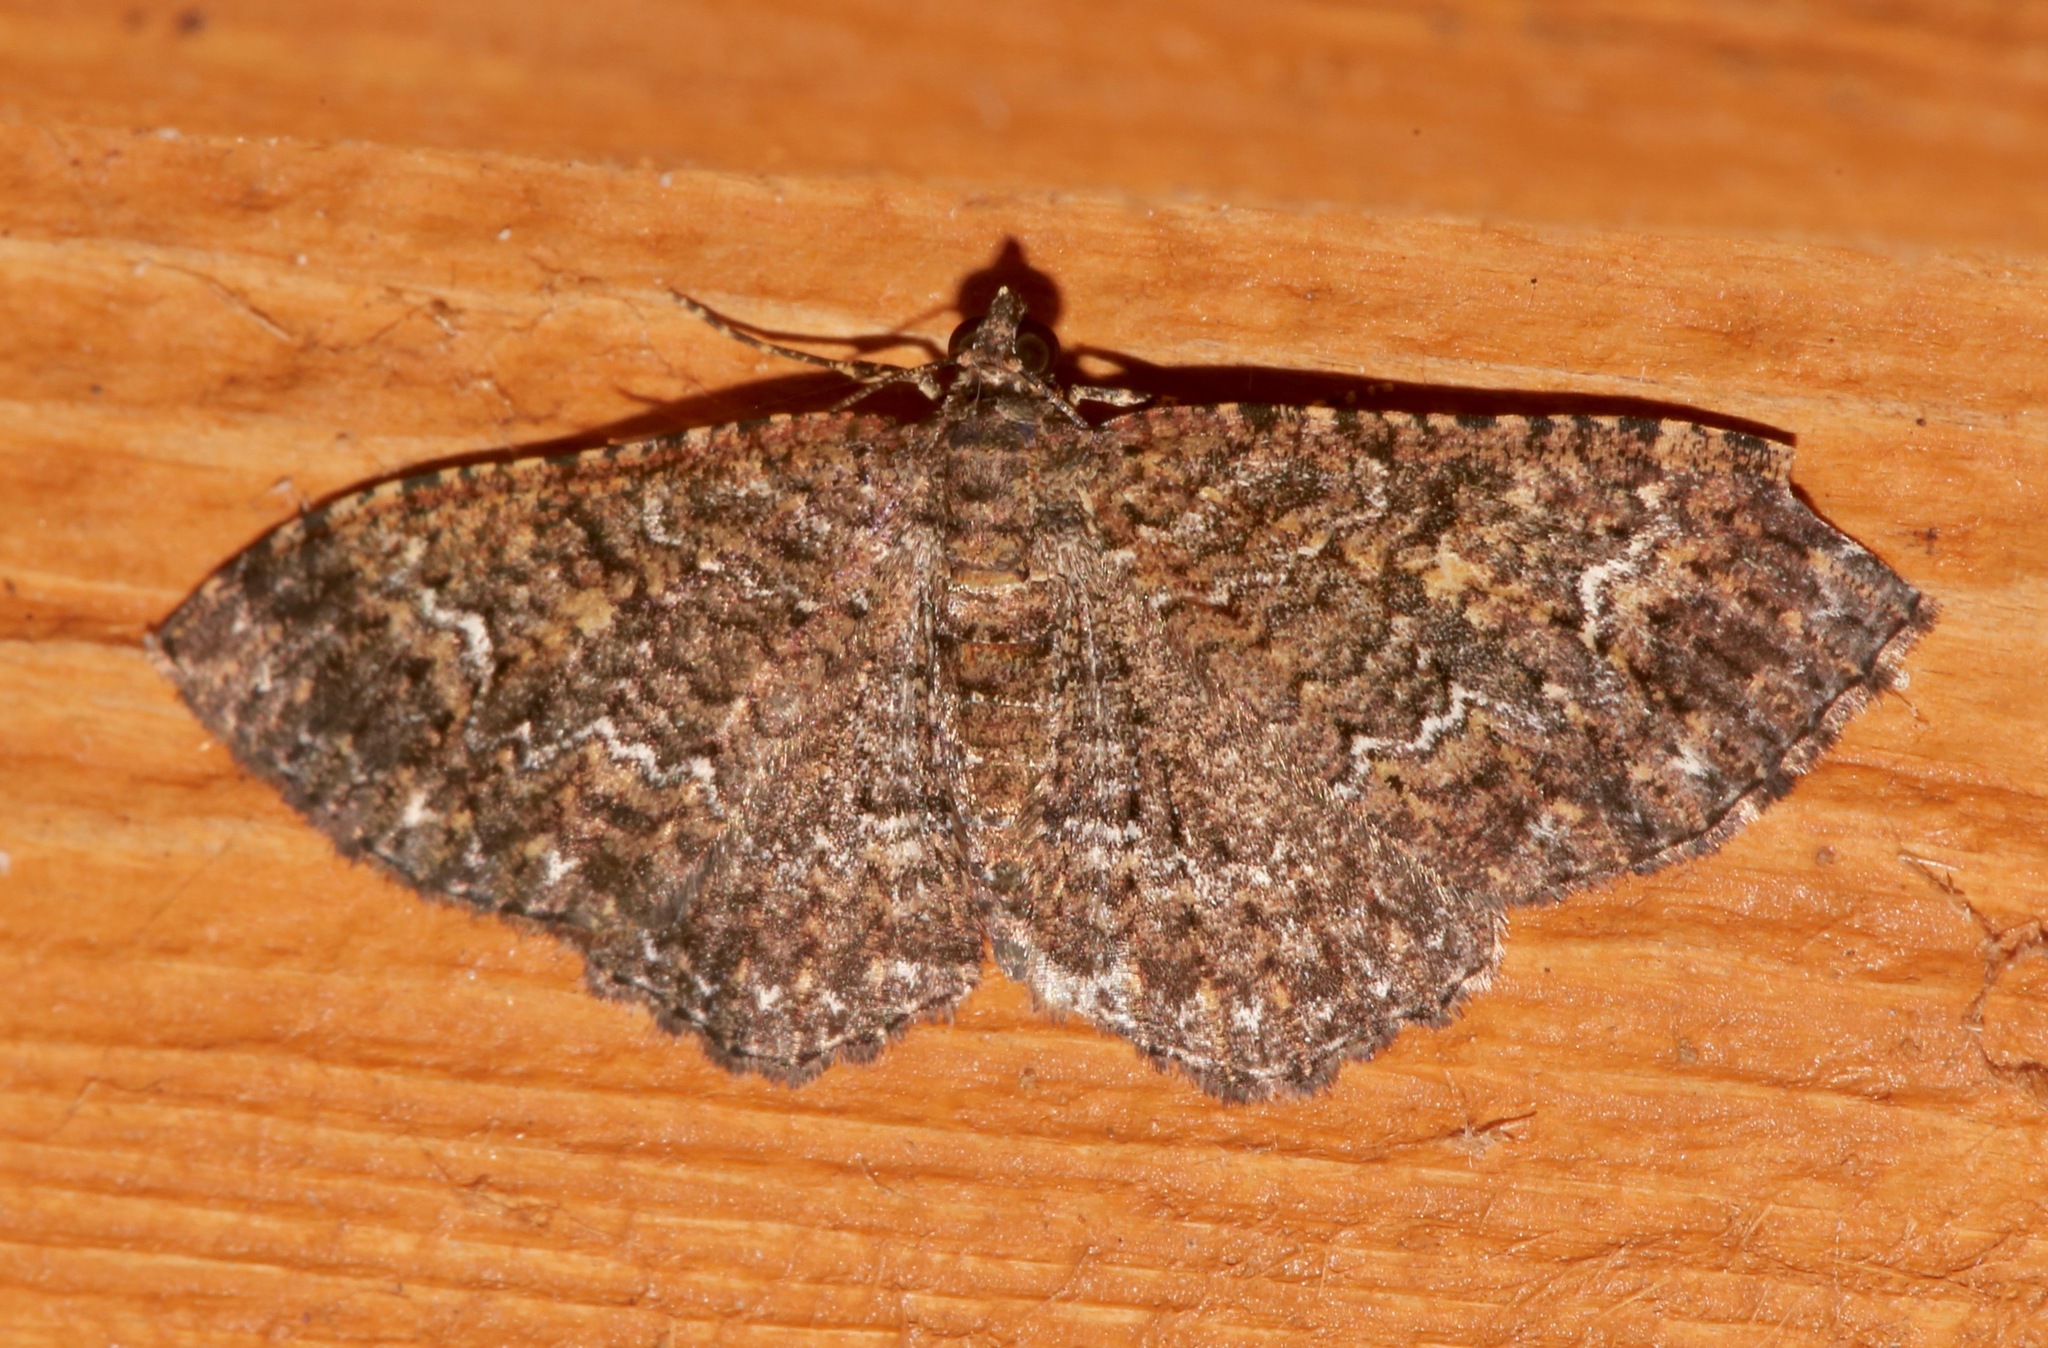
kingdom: Animalia
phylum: Arthropoda
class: Insecta
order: Lepidoptera
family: Geometridae
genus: Disclisioprocta
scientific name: Disclisioprocta stellata
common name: Somber carpet
